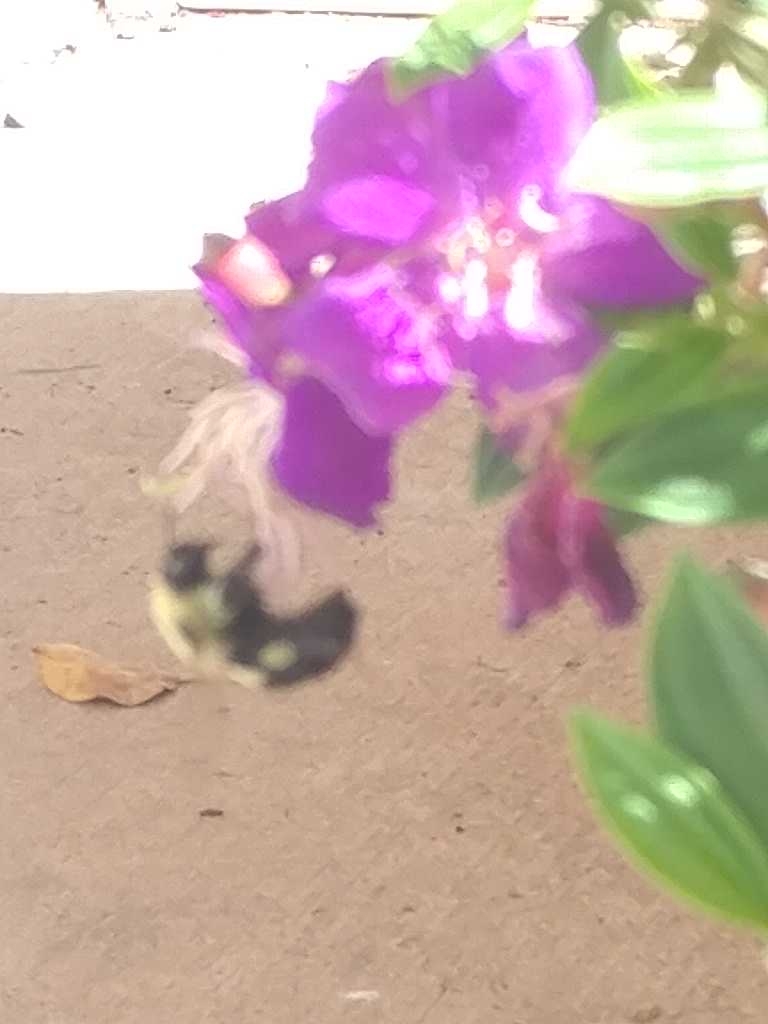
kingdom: Animalia
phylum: Arthropoda
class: Insecta
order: Hymenoptera
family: Apidae
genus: Bombus
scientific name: Bombus impatiens
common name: Common eastern bumble bee
